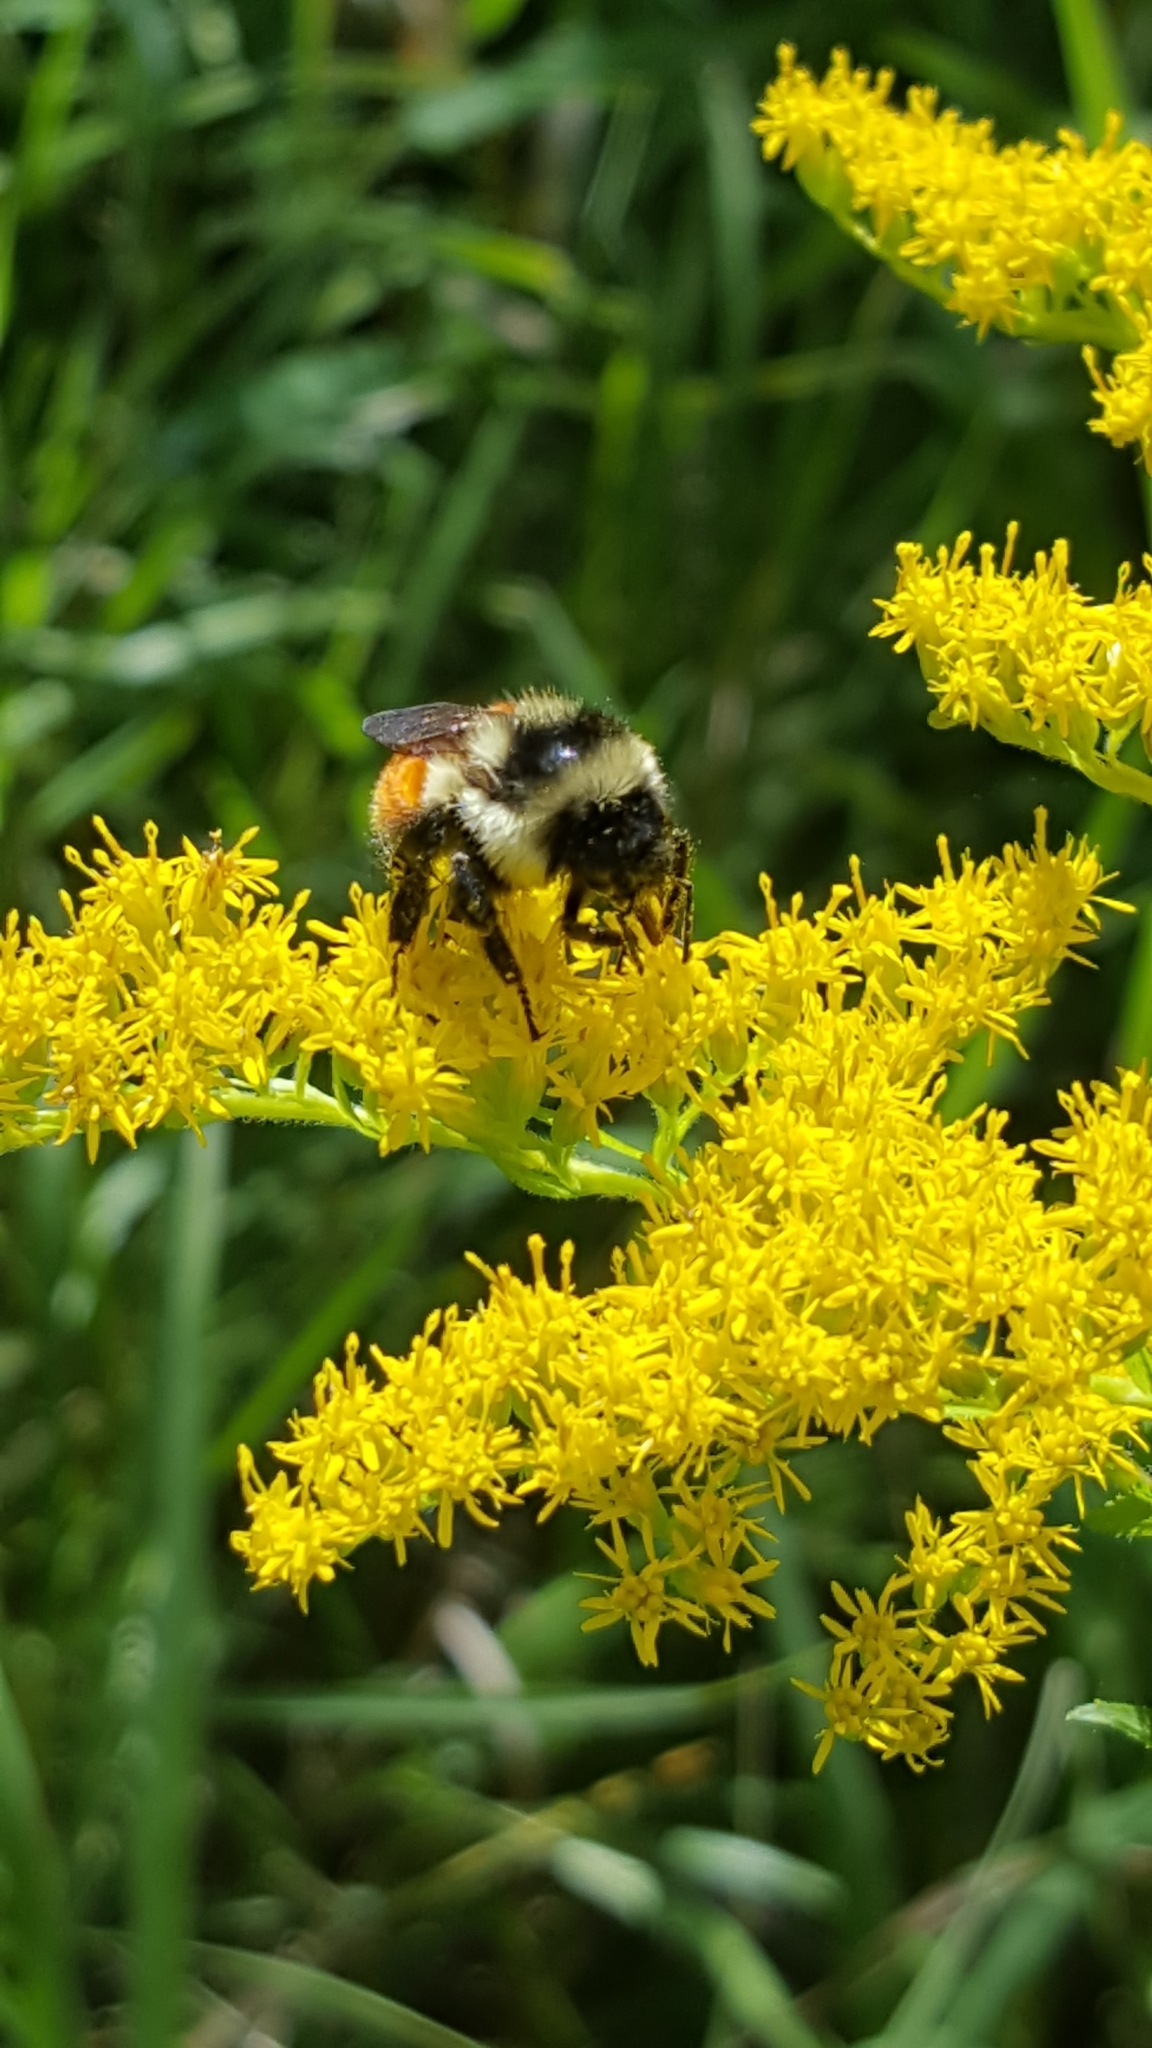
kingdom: Animalia
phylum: Arthropoda
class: Insecta
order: Hymenoptera
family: Apidae
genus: Bombus
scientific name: Bombus ternarius
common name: Tri-colored bumble bee
